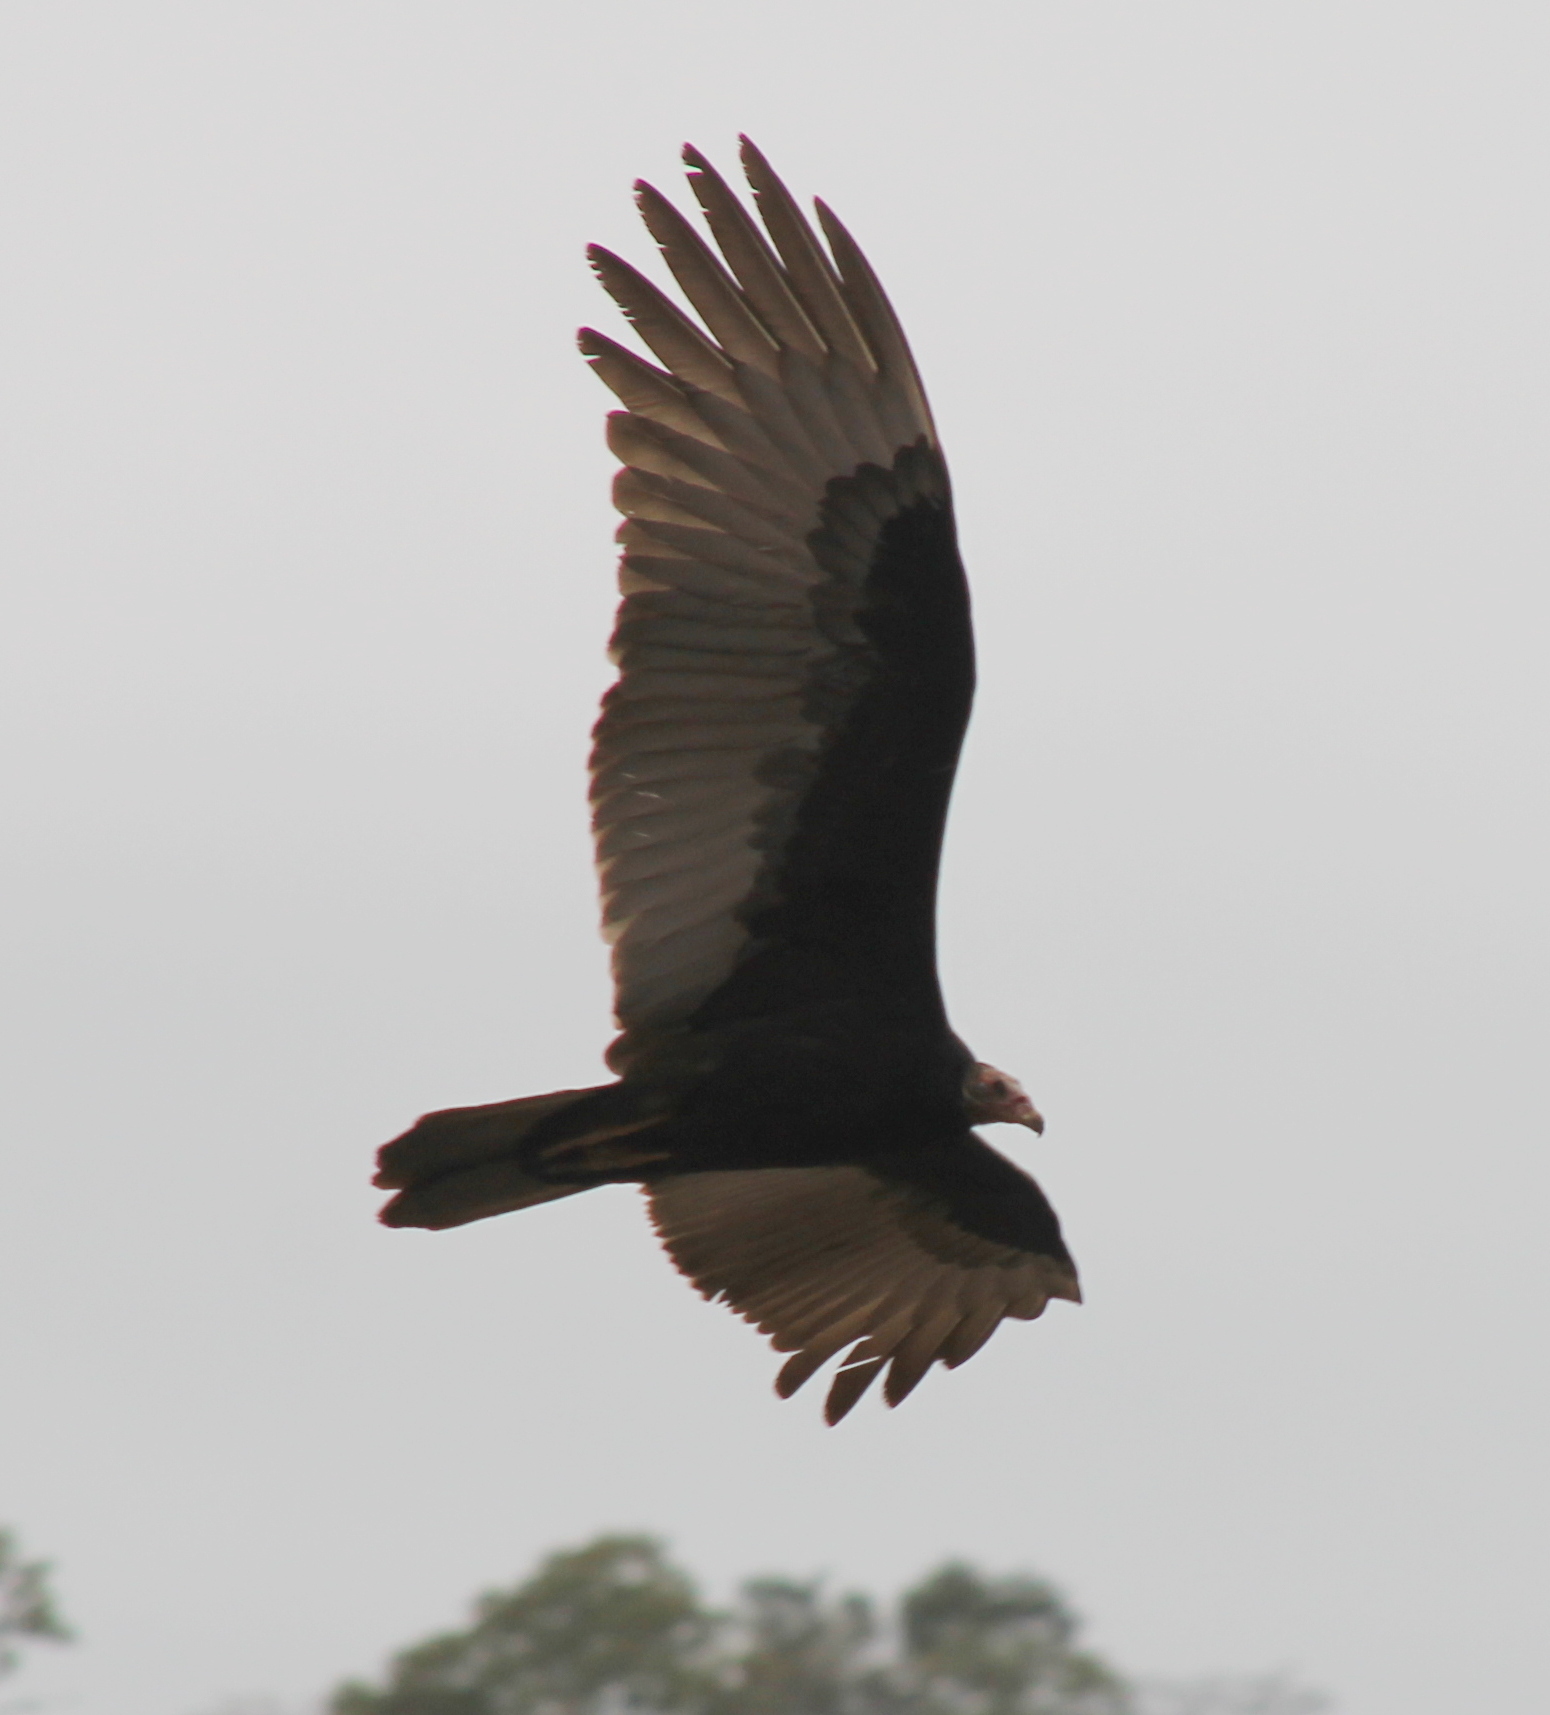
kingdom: Animalia
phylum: Chordata
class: Aves
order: Accipitriformes
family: Cathartidae
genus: Cathartes
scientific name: Cathartes burrovianus
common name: Lesser yellow-headed vulture
